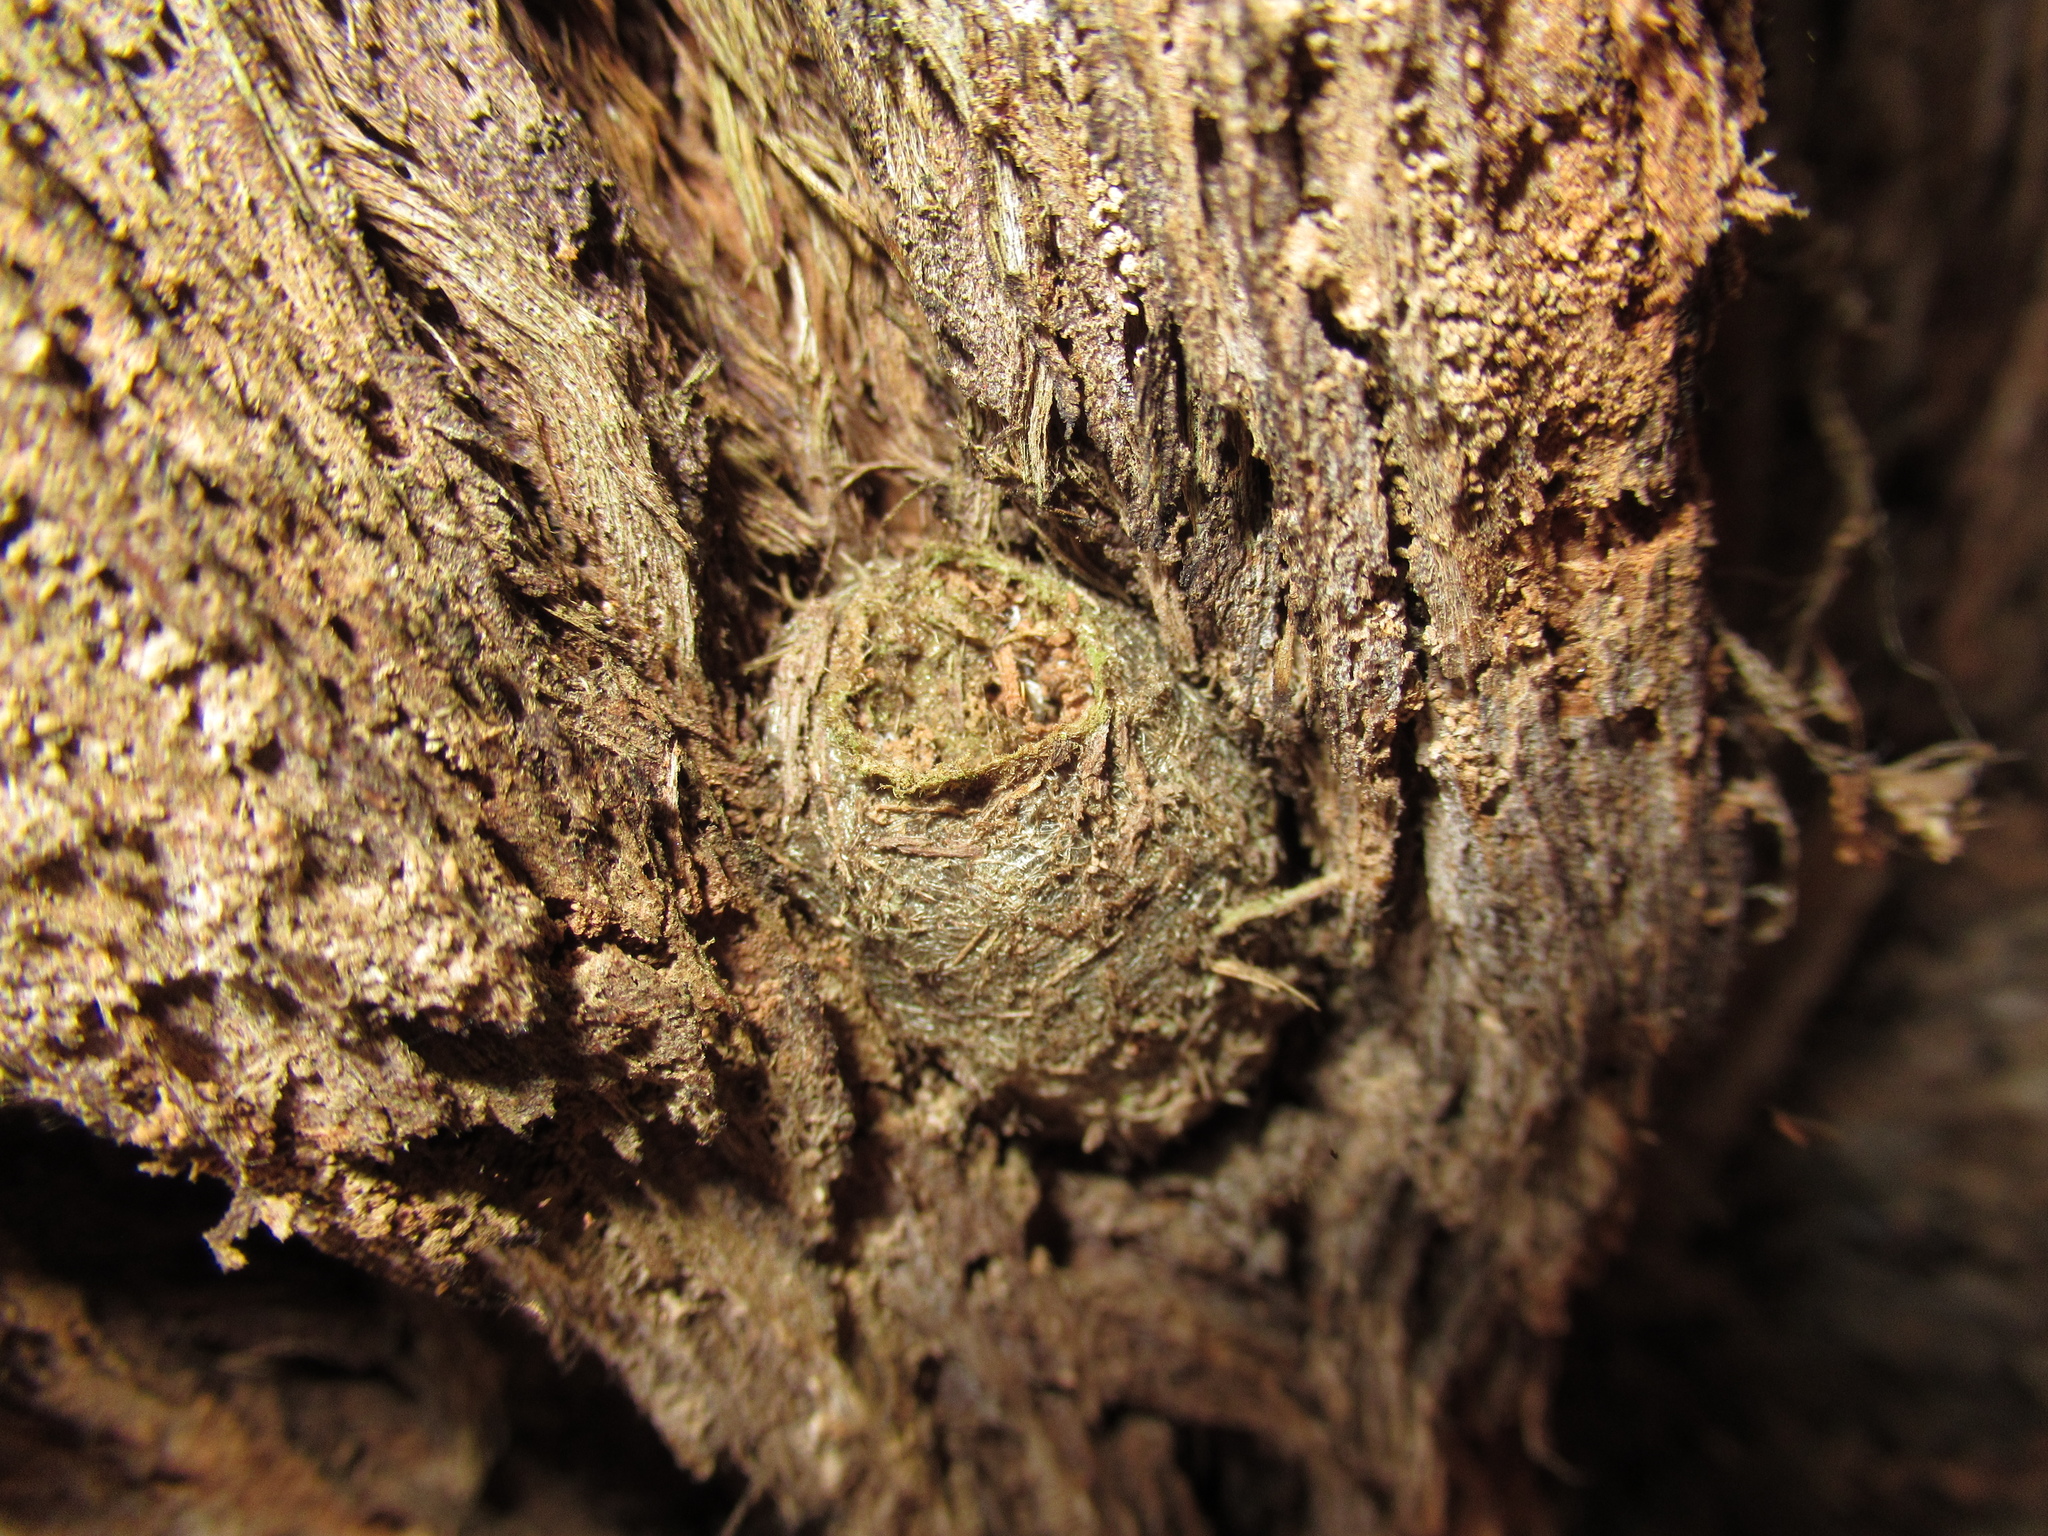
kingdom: Animalia
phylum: Arthropoda
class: Insecta
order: Lepidoptera
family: Saturniidae
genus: Opodiphthera
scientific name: Opodiphthera
